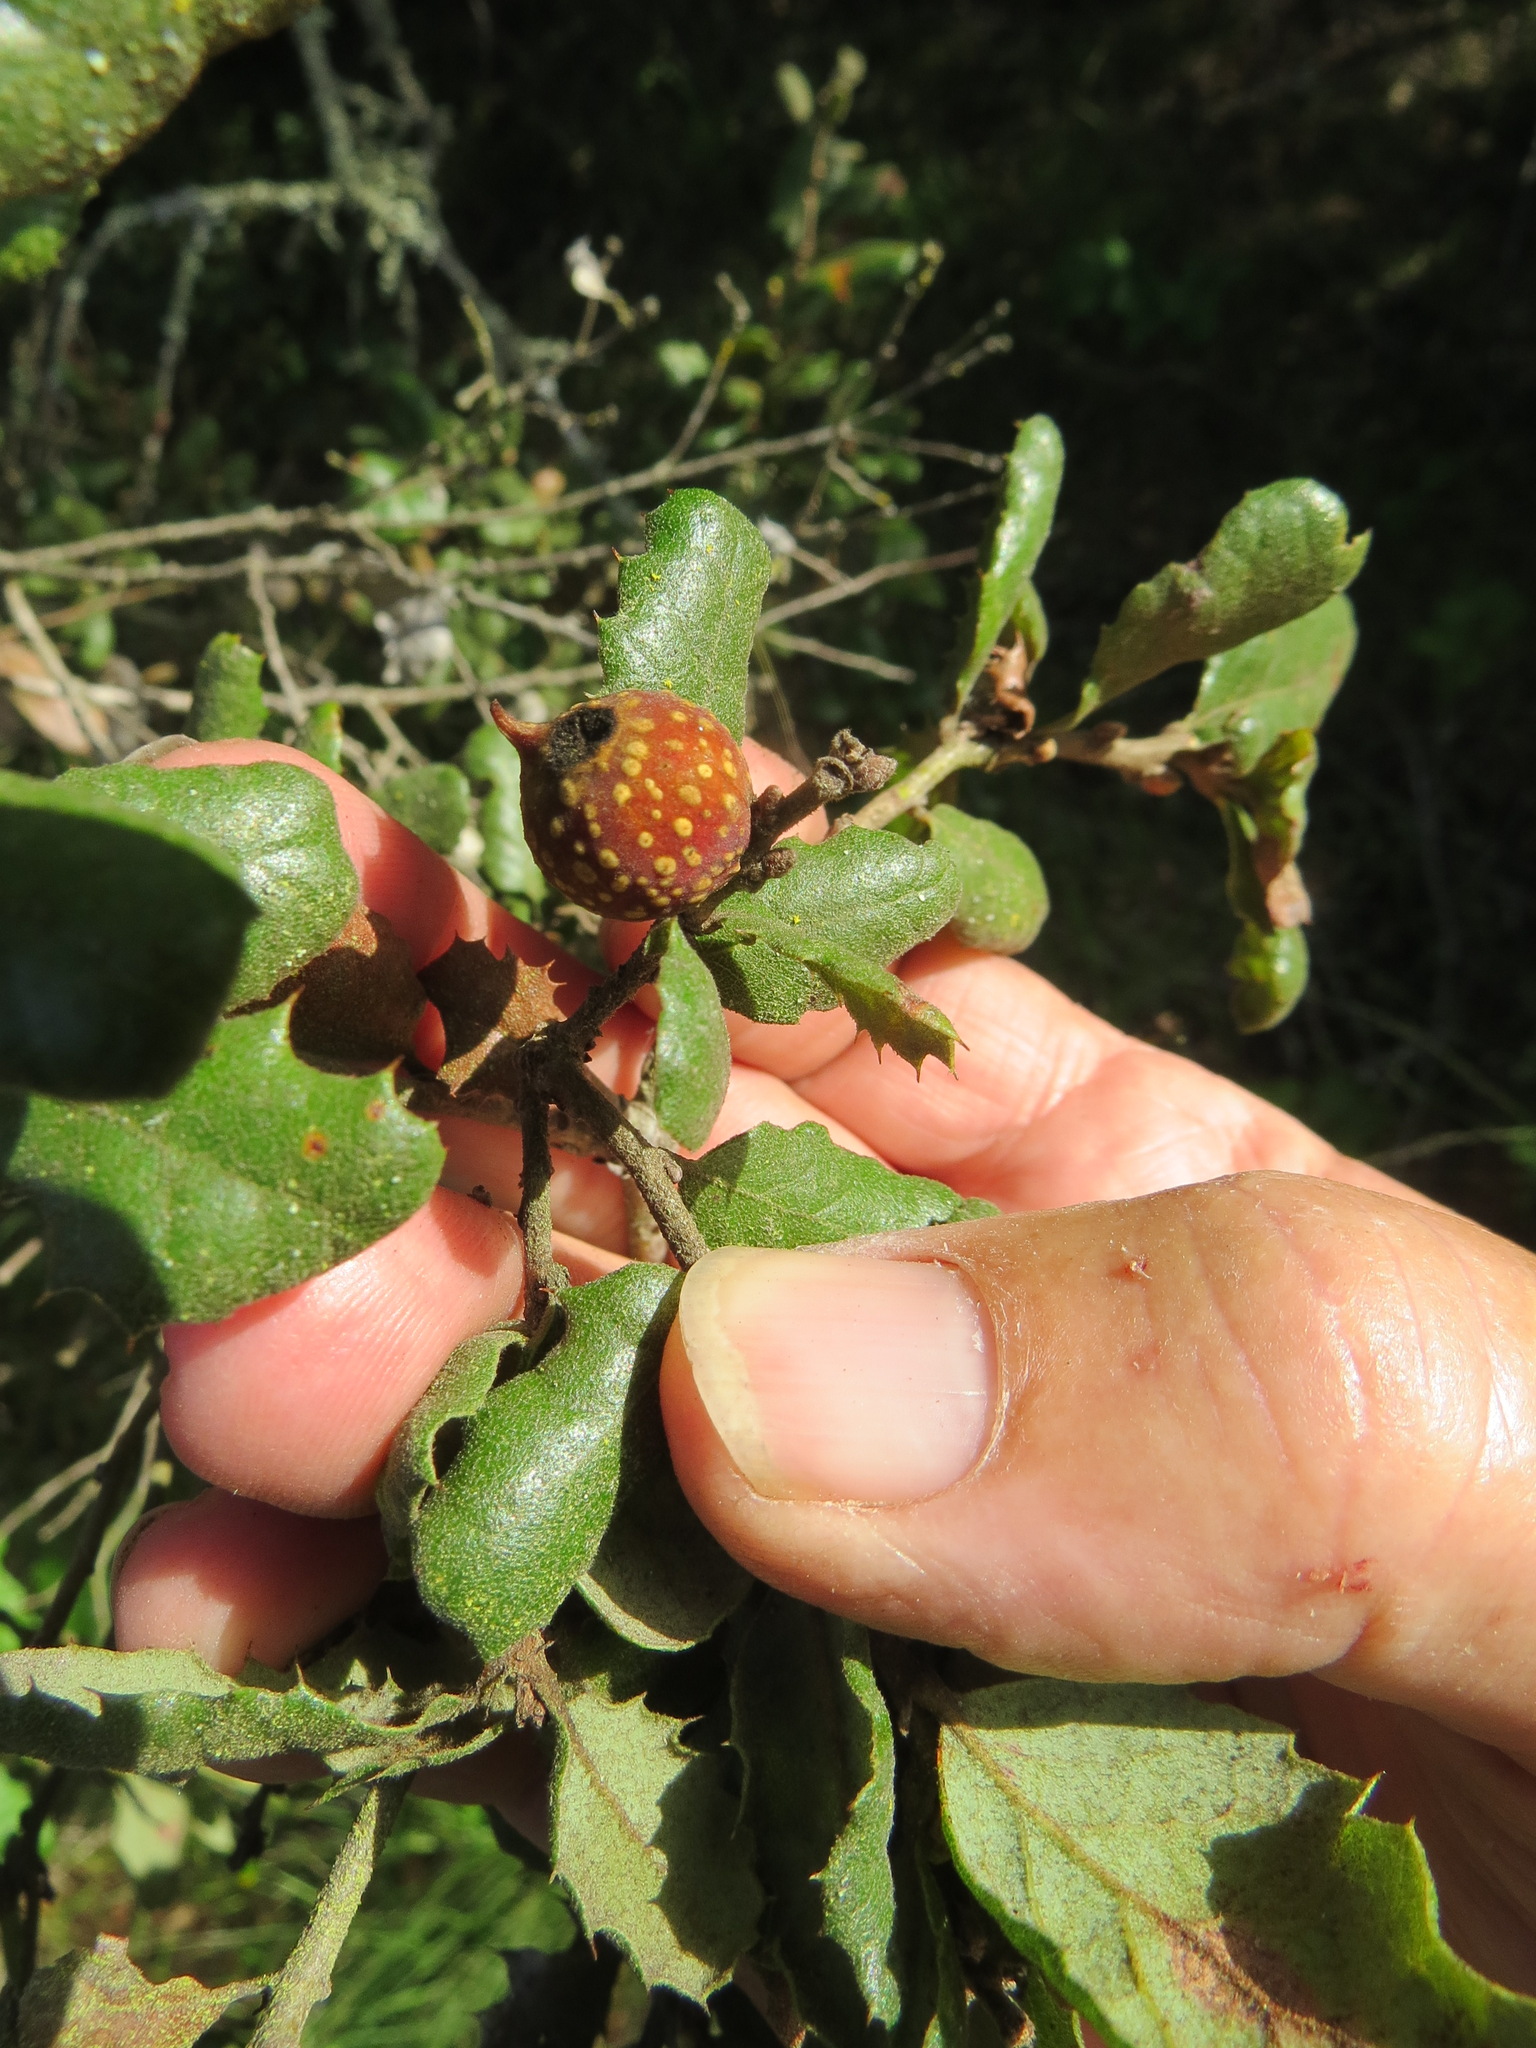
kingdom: Animalia
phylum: Arthropoda
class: Insecta
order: Hymenoptera
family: Cynipidae
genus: Burnettweldia
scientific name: Burnettweldia
